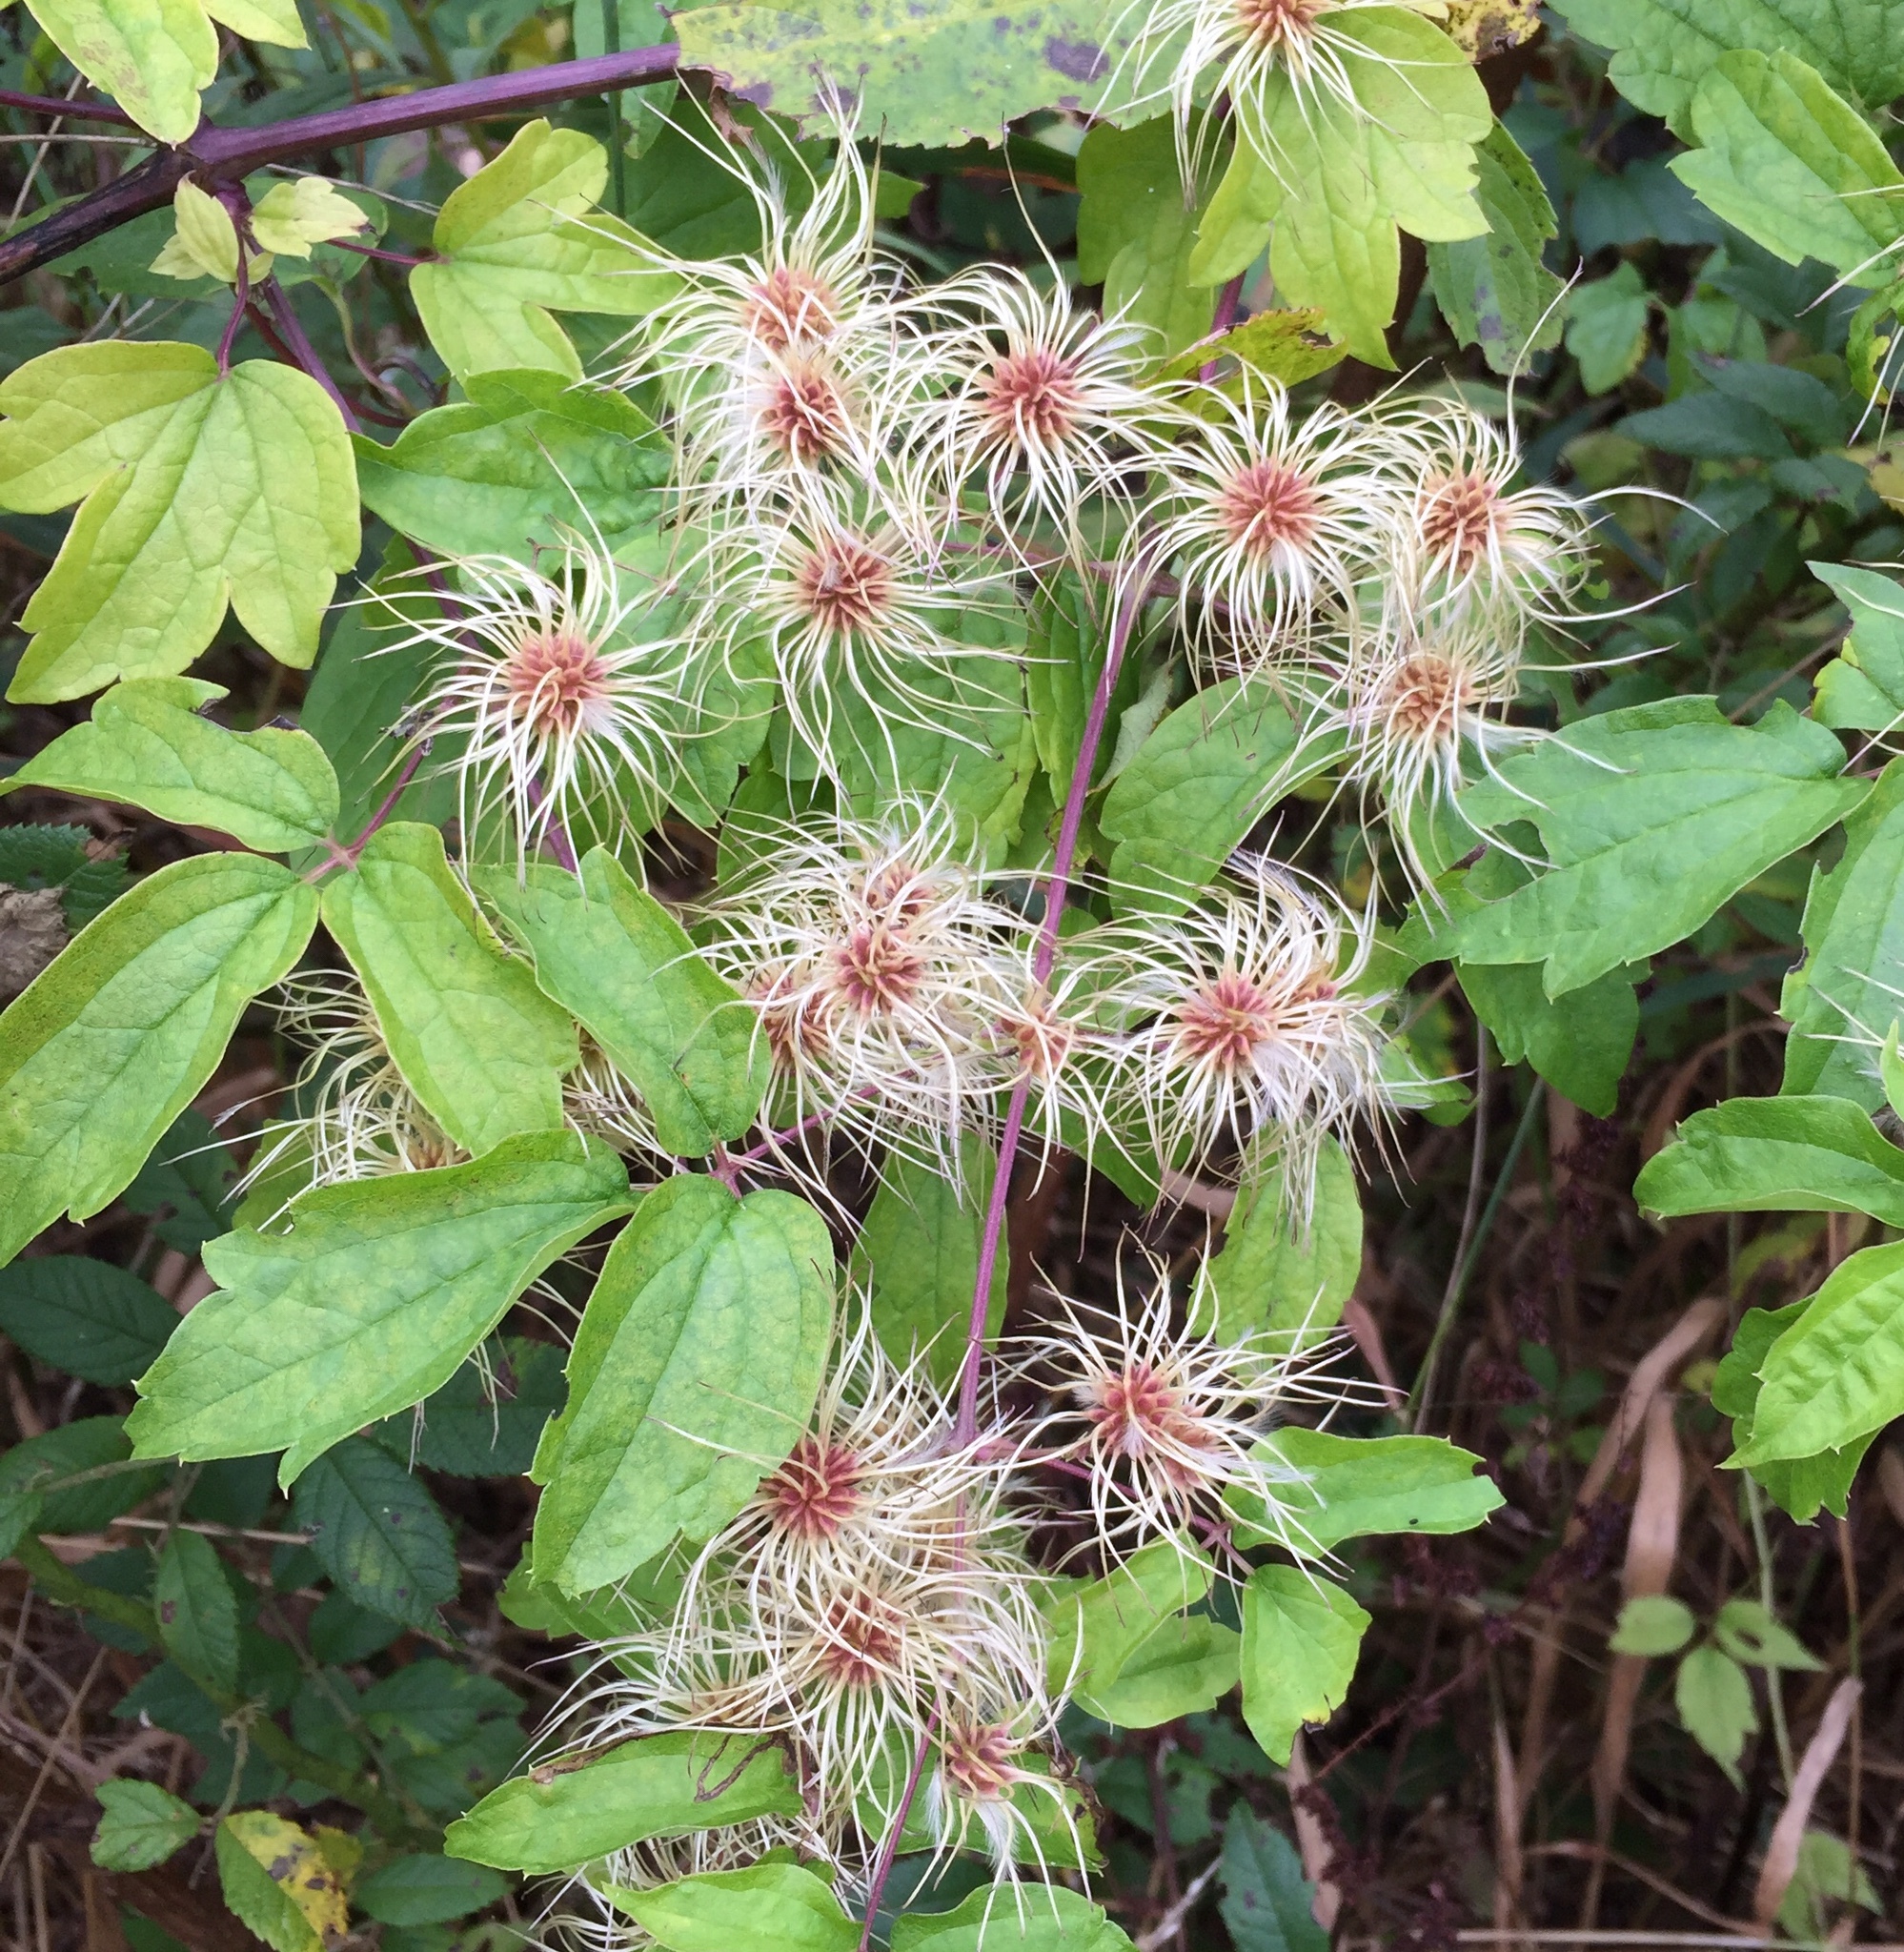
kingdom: Plantae
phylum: Tracheophyta
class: Magnoliopsida
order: Ranunculales
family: Ranunculaceae
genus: Clematis
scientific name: Clematis virginiana
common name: Virgin's-bower
